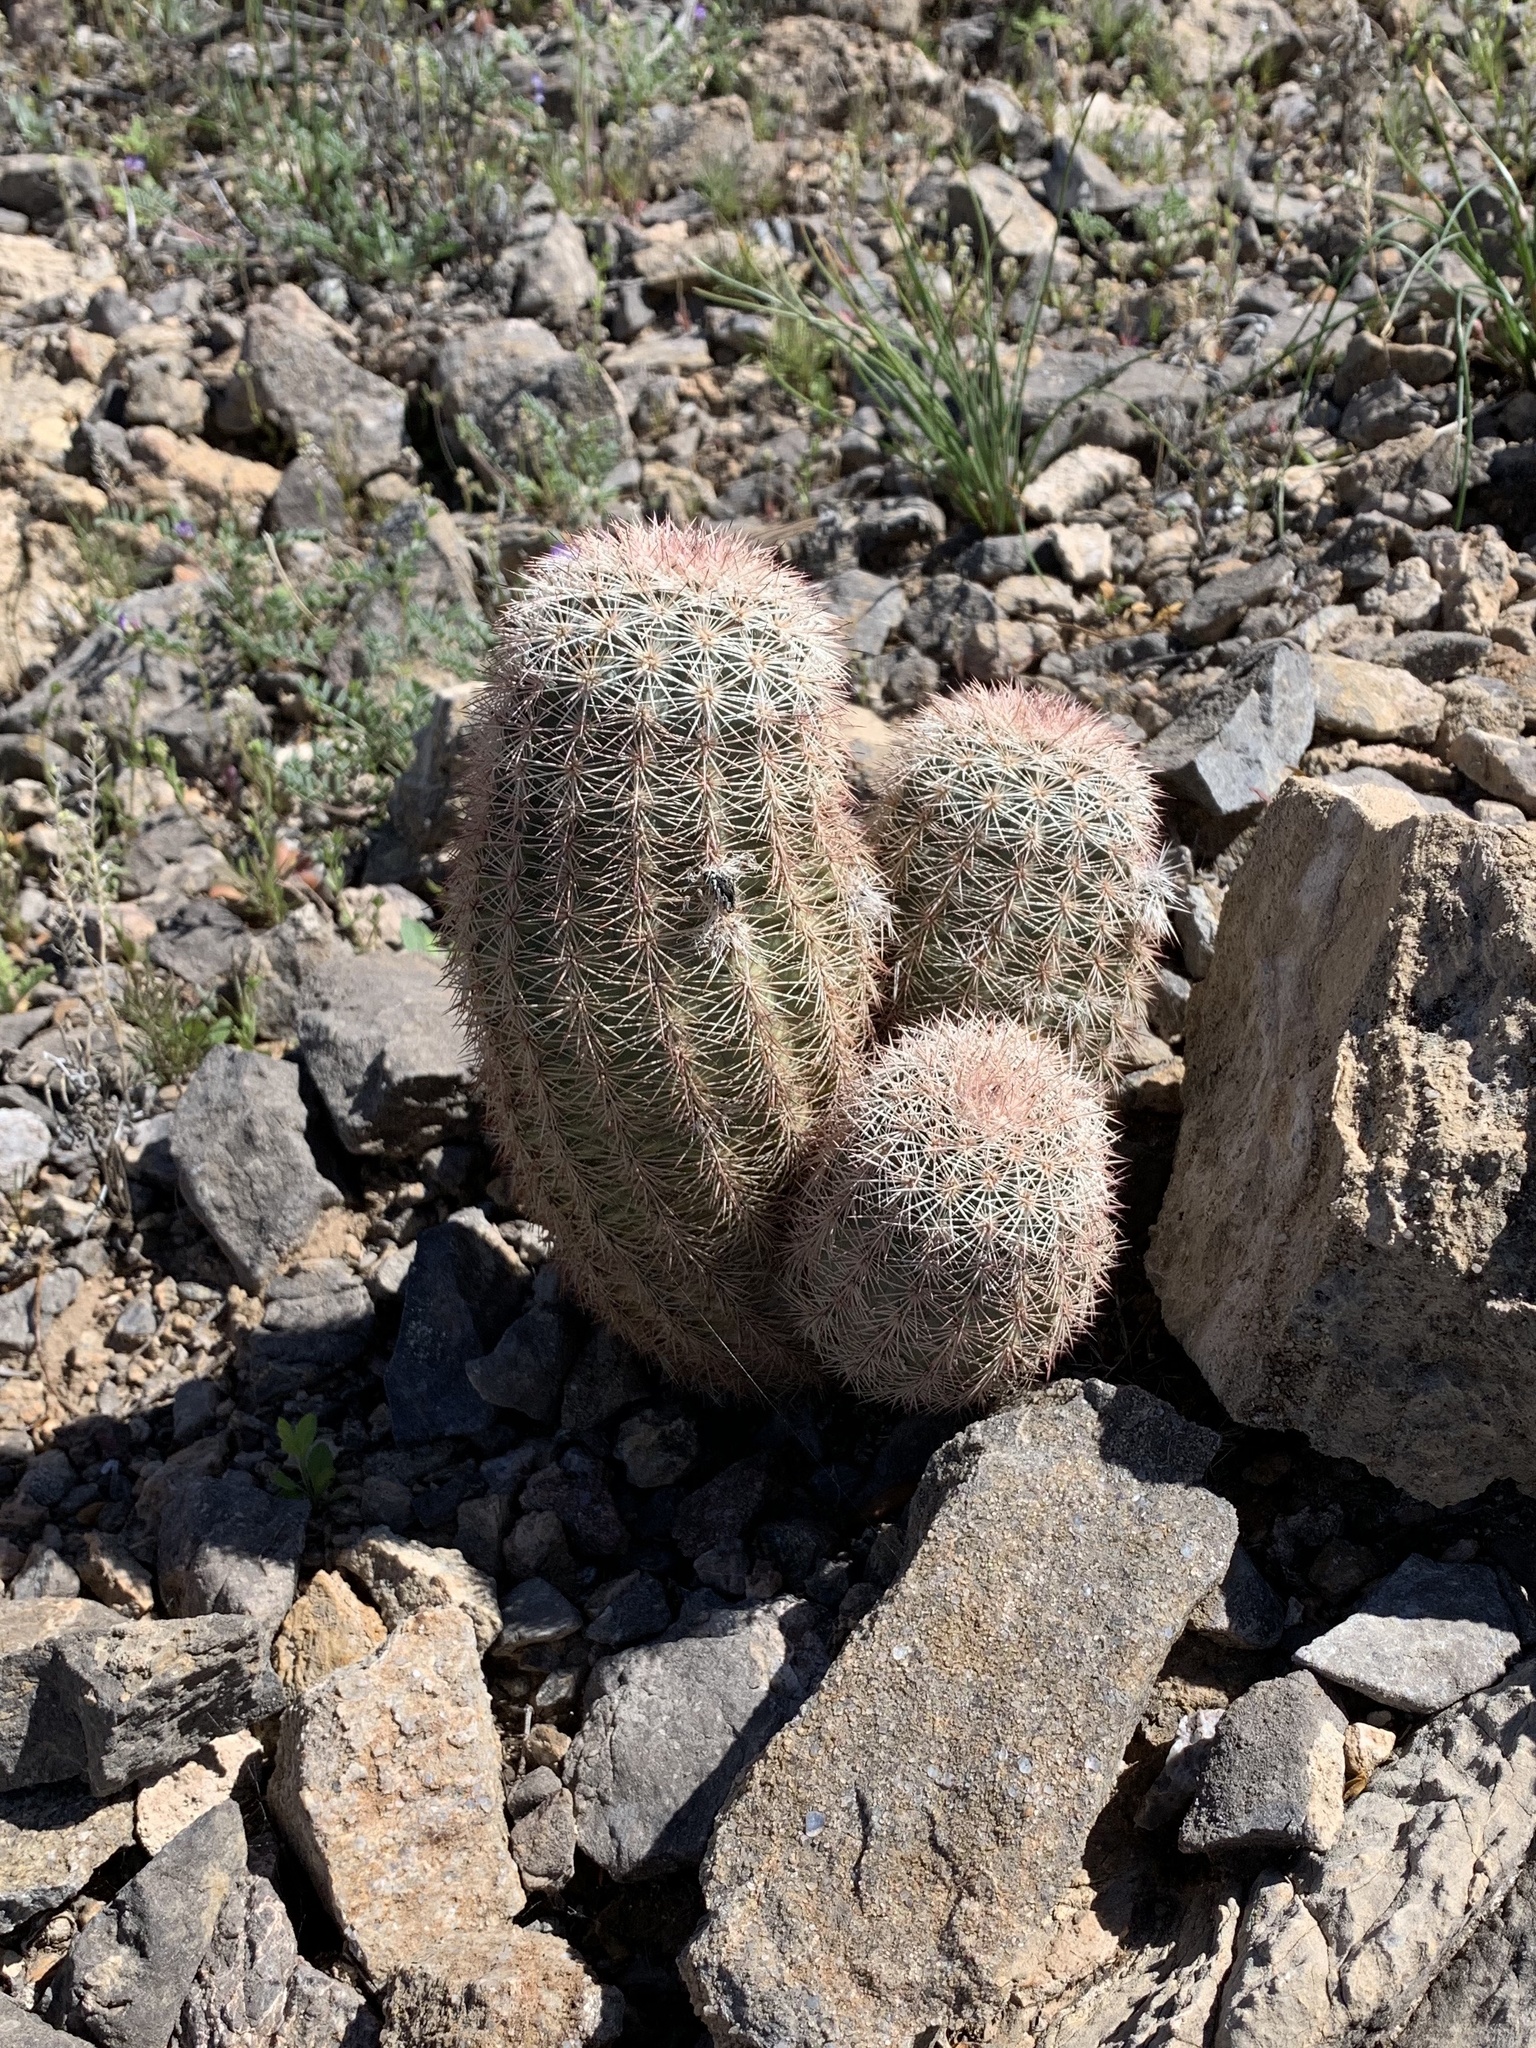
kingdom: Plantae
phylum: Tracheophyta
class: Magnoliopsida
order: Caryophyllales
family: Cactaceae
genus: Echinocereus
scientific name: Echinocereus dasyacanthus
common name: Spiny hedgehog cactus
